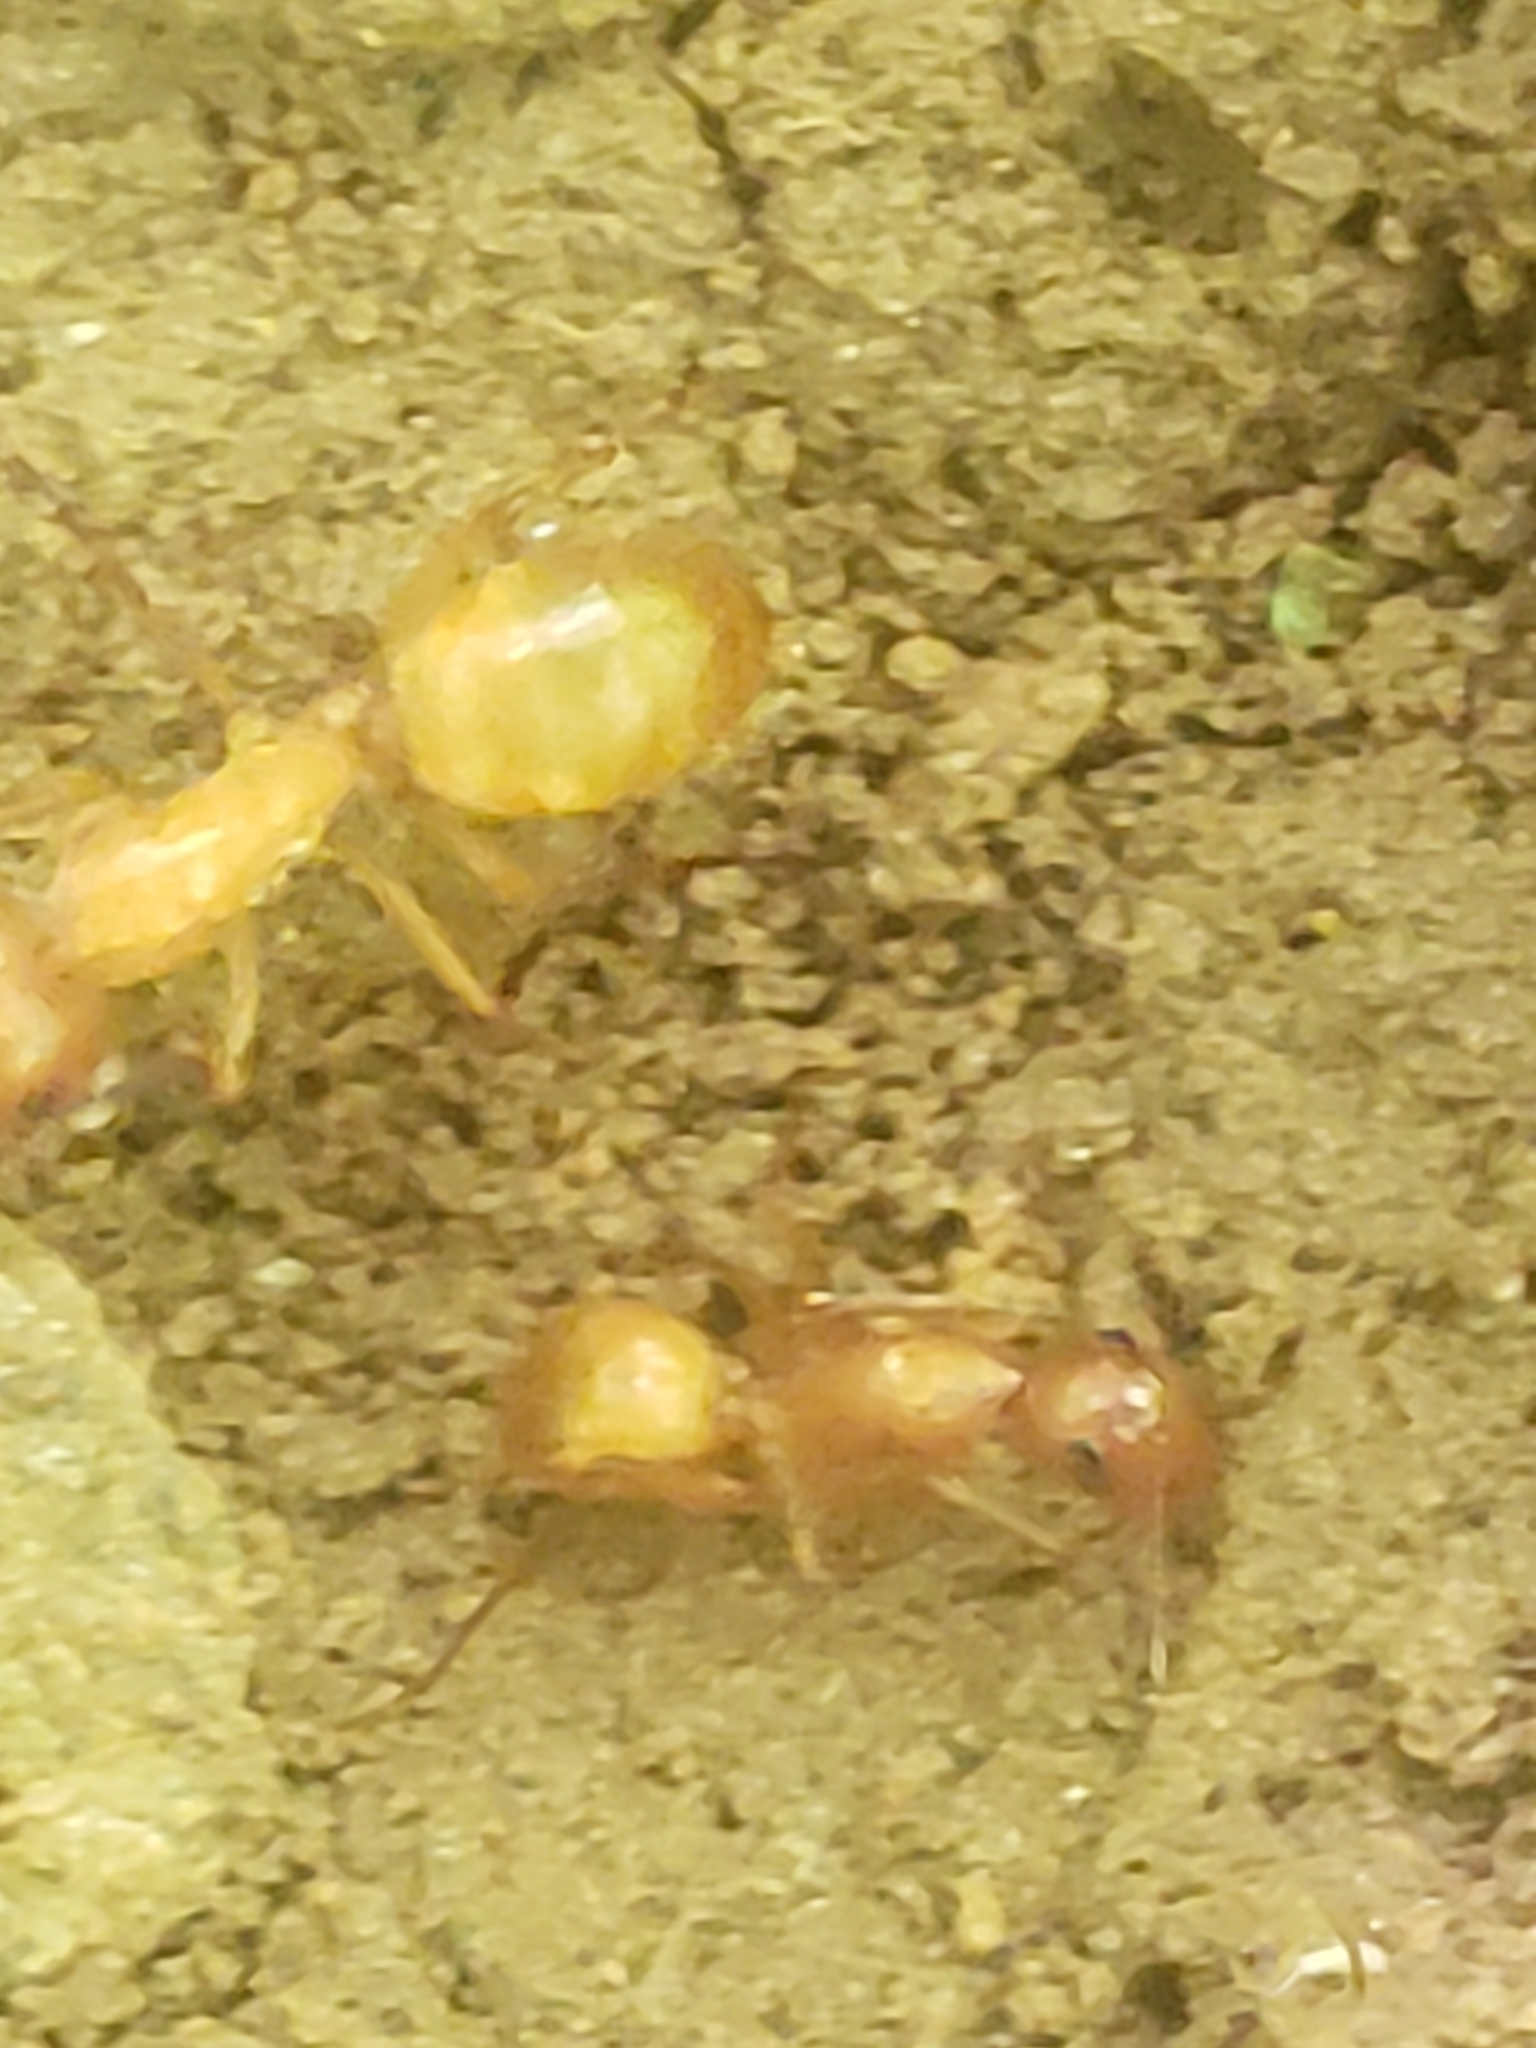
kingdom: Animalia
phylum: Arthropoda
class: Insecta
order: Hymenoptera
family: Formicidae
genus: Camponotus
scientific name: Camponotus castaneus
